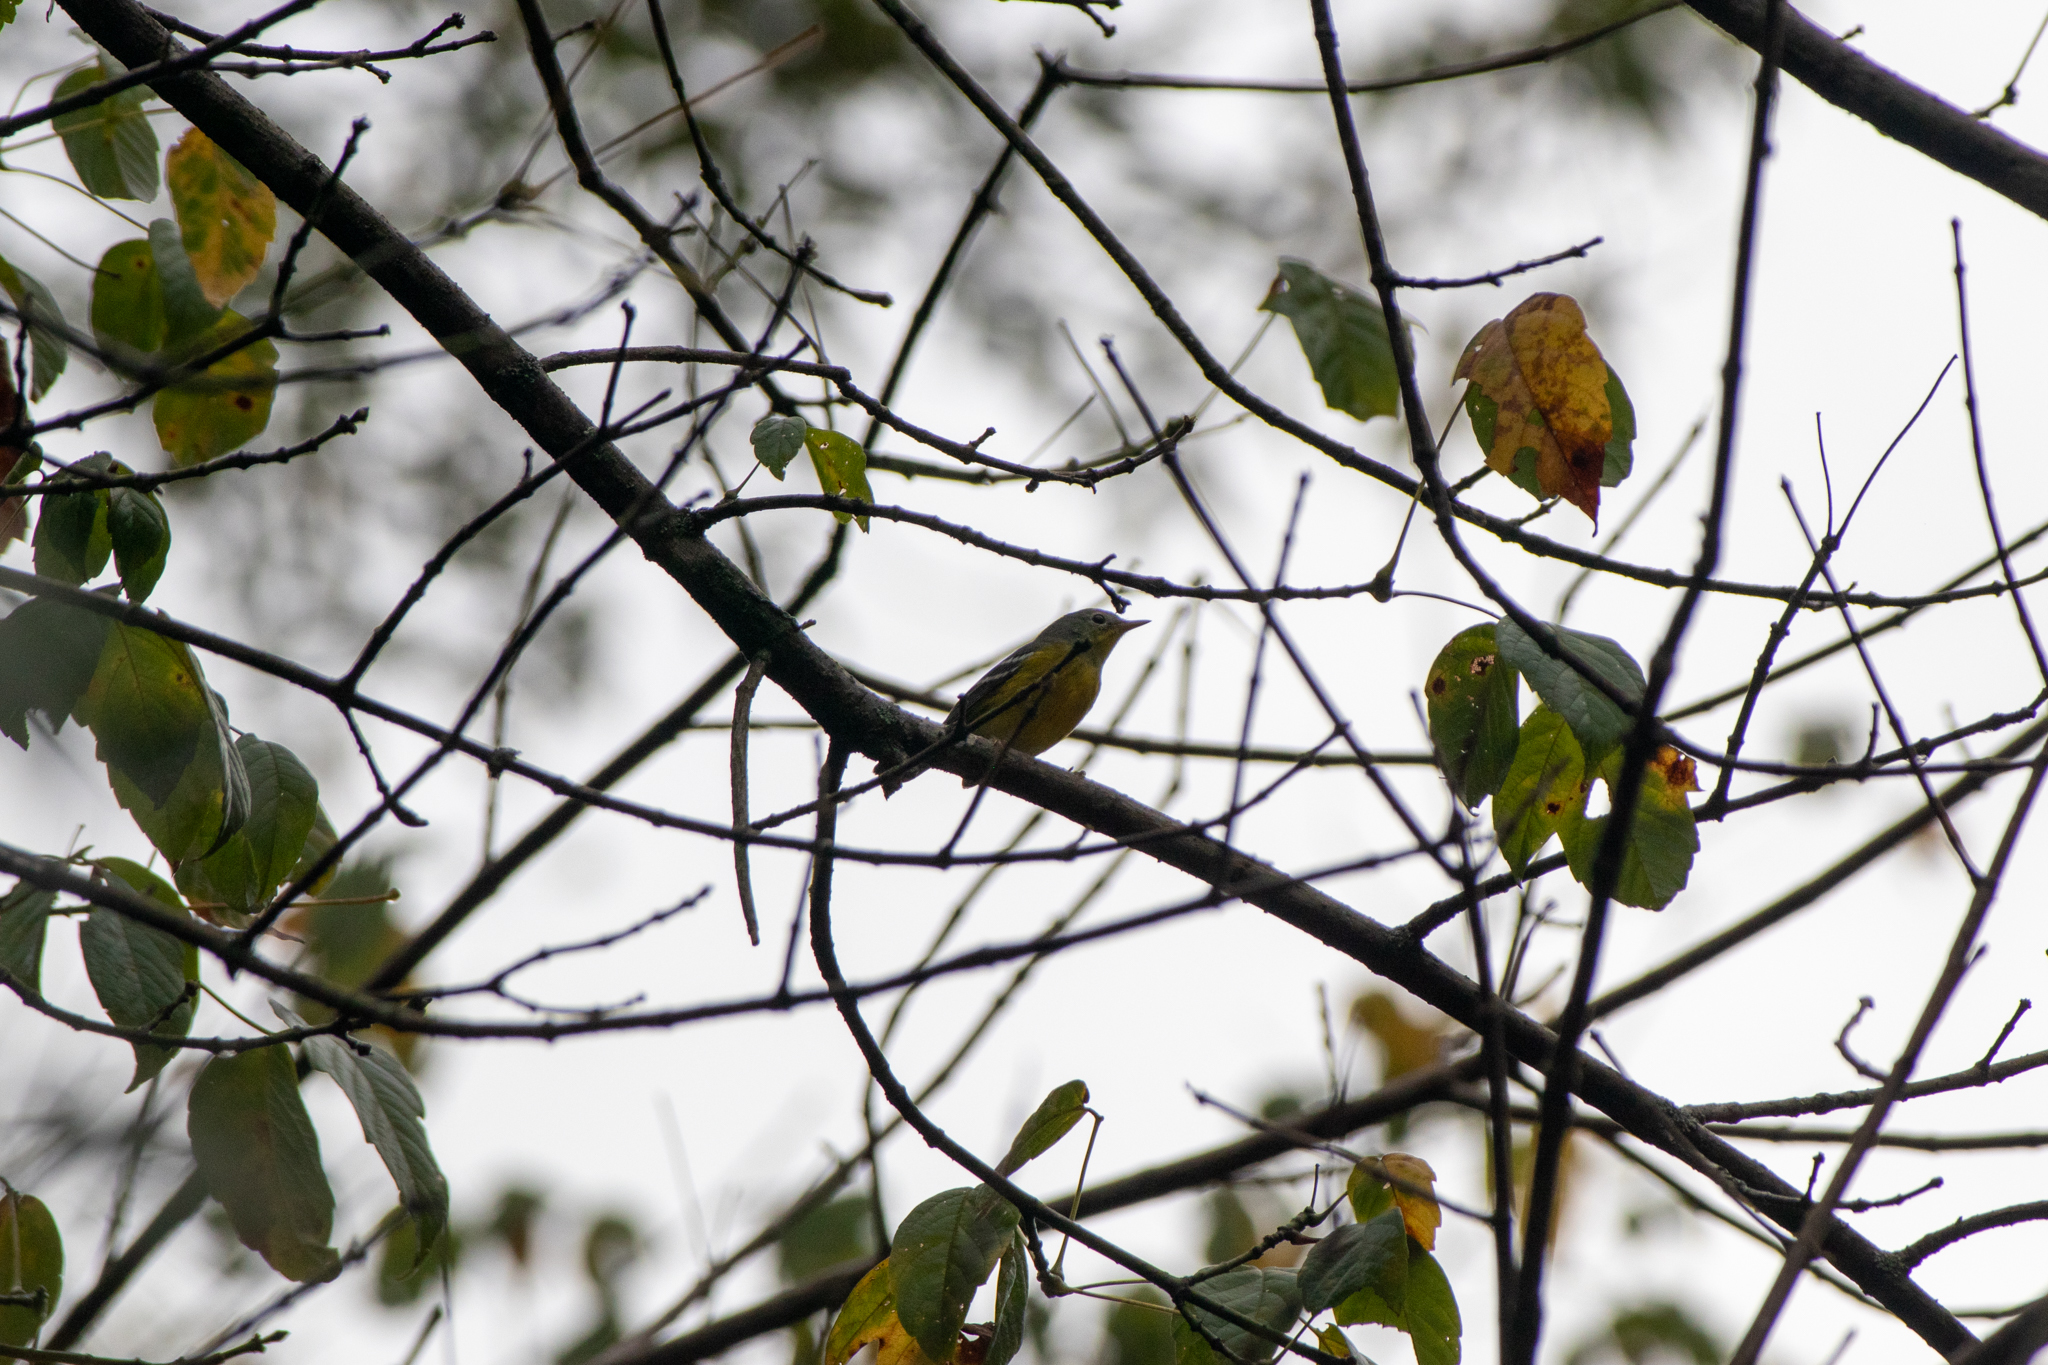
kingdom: Animalia
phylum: Chordata
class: Aves
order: Passeriformes
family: Parulidae
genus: Setophaga
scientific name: Setophaga magnolia
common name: Magnolia warbler
